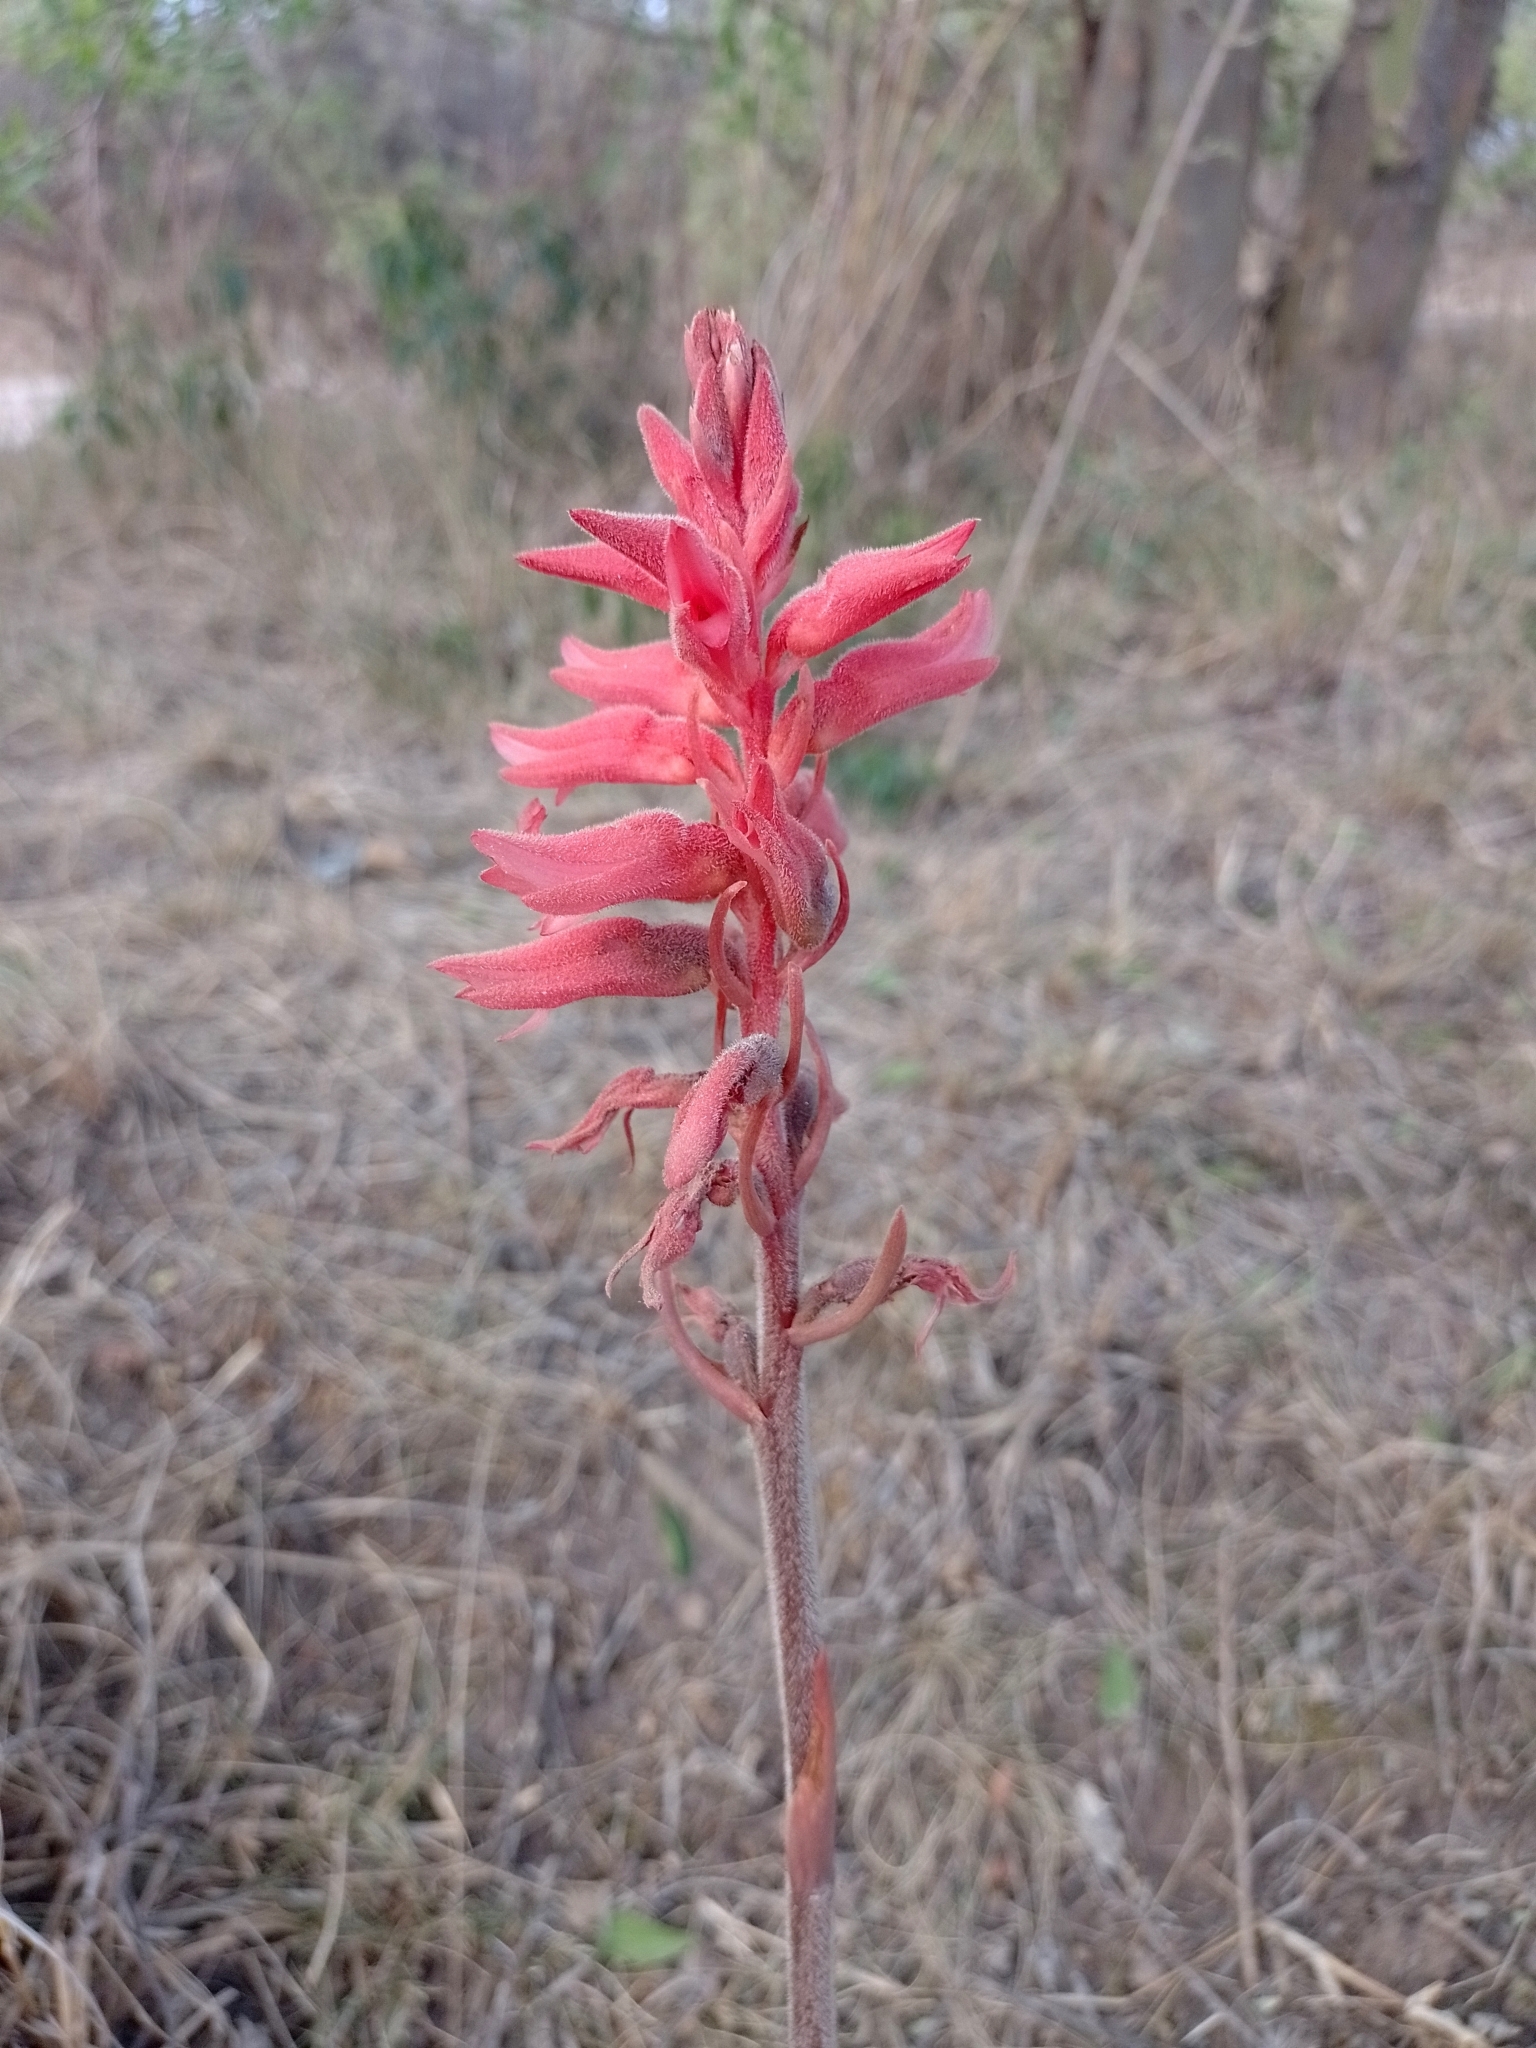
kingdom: Plantae
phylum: Tracheophyta
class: Liliopsida
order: Asparagales
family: Orchidaceae
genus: Sacoila
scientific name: Sacoila lanceolata
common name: Leafless beaked ladiestresses
